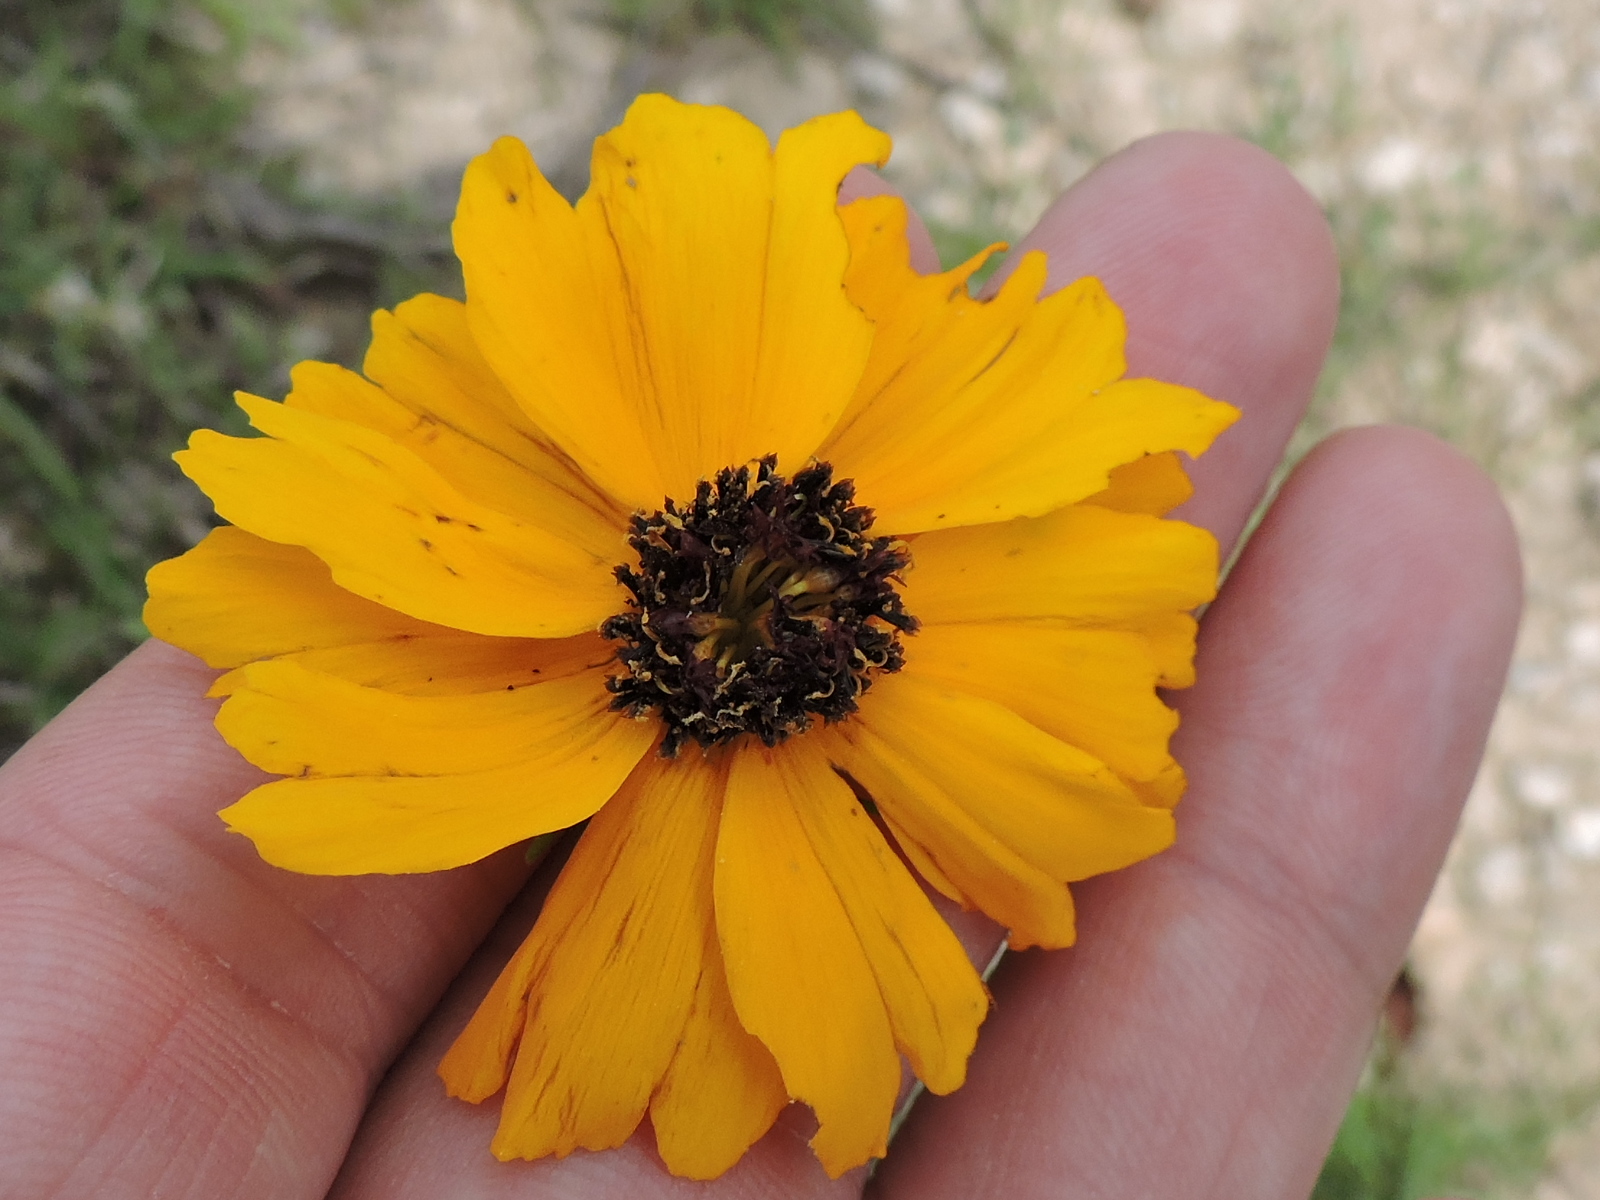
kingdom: Plantae
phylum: Tracheophyta
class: Magnoliopsida
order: Asterales
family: Asteraceae
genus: Thelesperma
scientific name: Thelesperma filifolium
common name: Stiff greenthread
